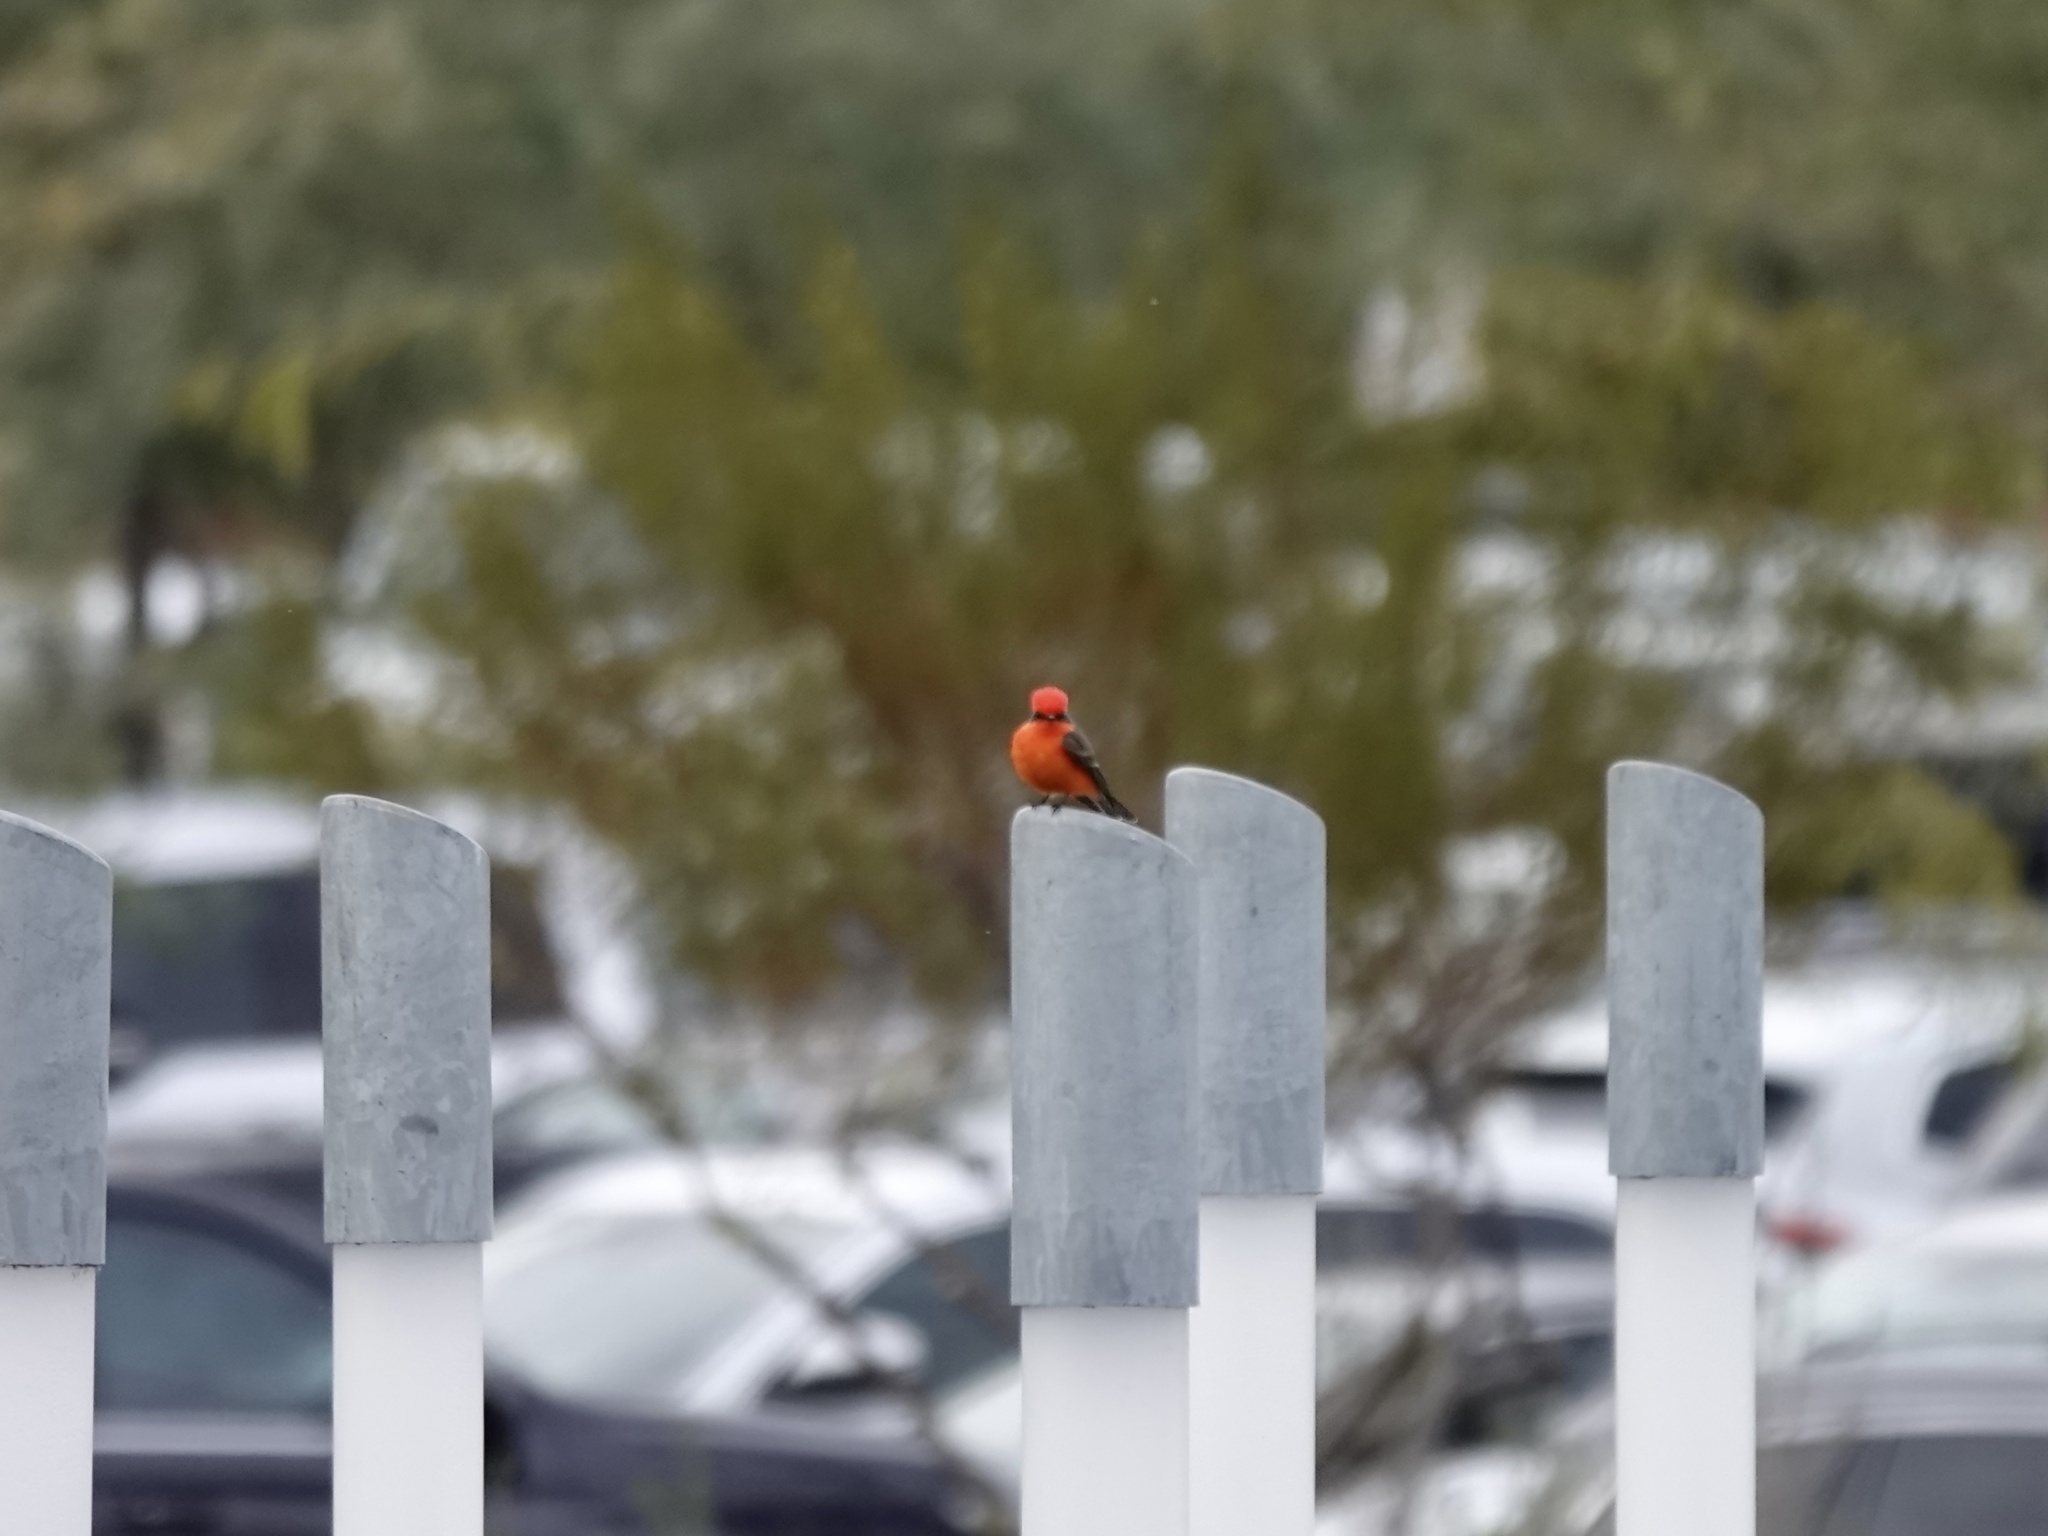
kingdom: Animalia
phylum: Chordata
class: Aves
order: Passeriformes
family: Tyrannidae
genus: Pyrocephalus
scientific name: Pyrocephalus rubinus
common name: Vermilion flycatcher
